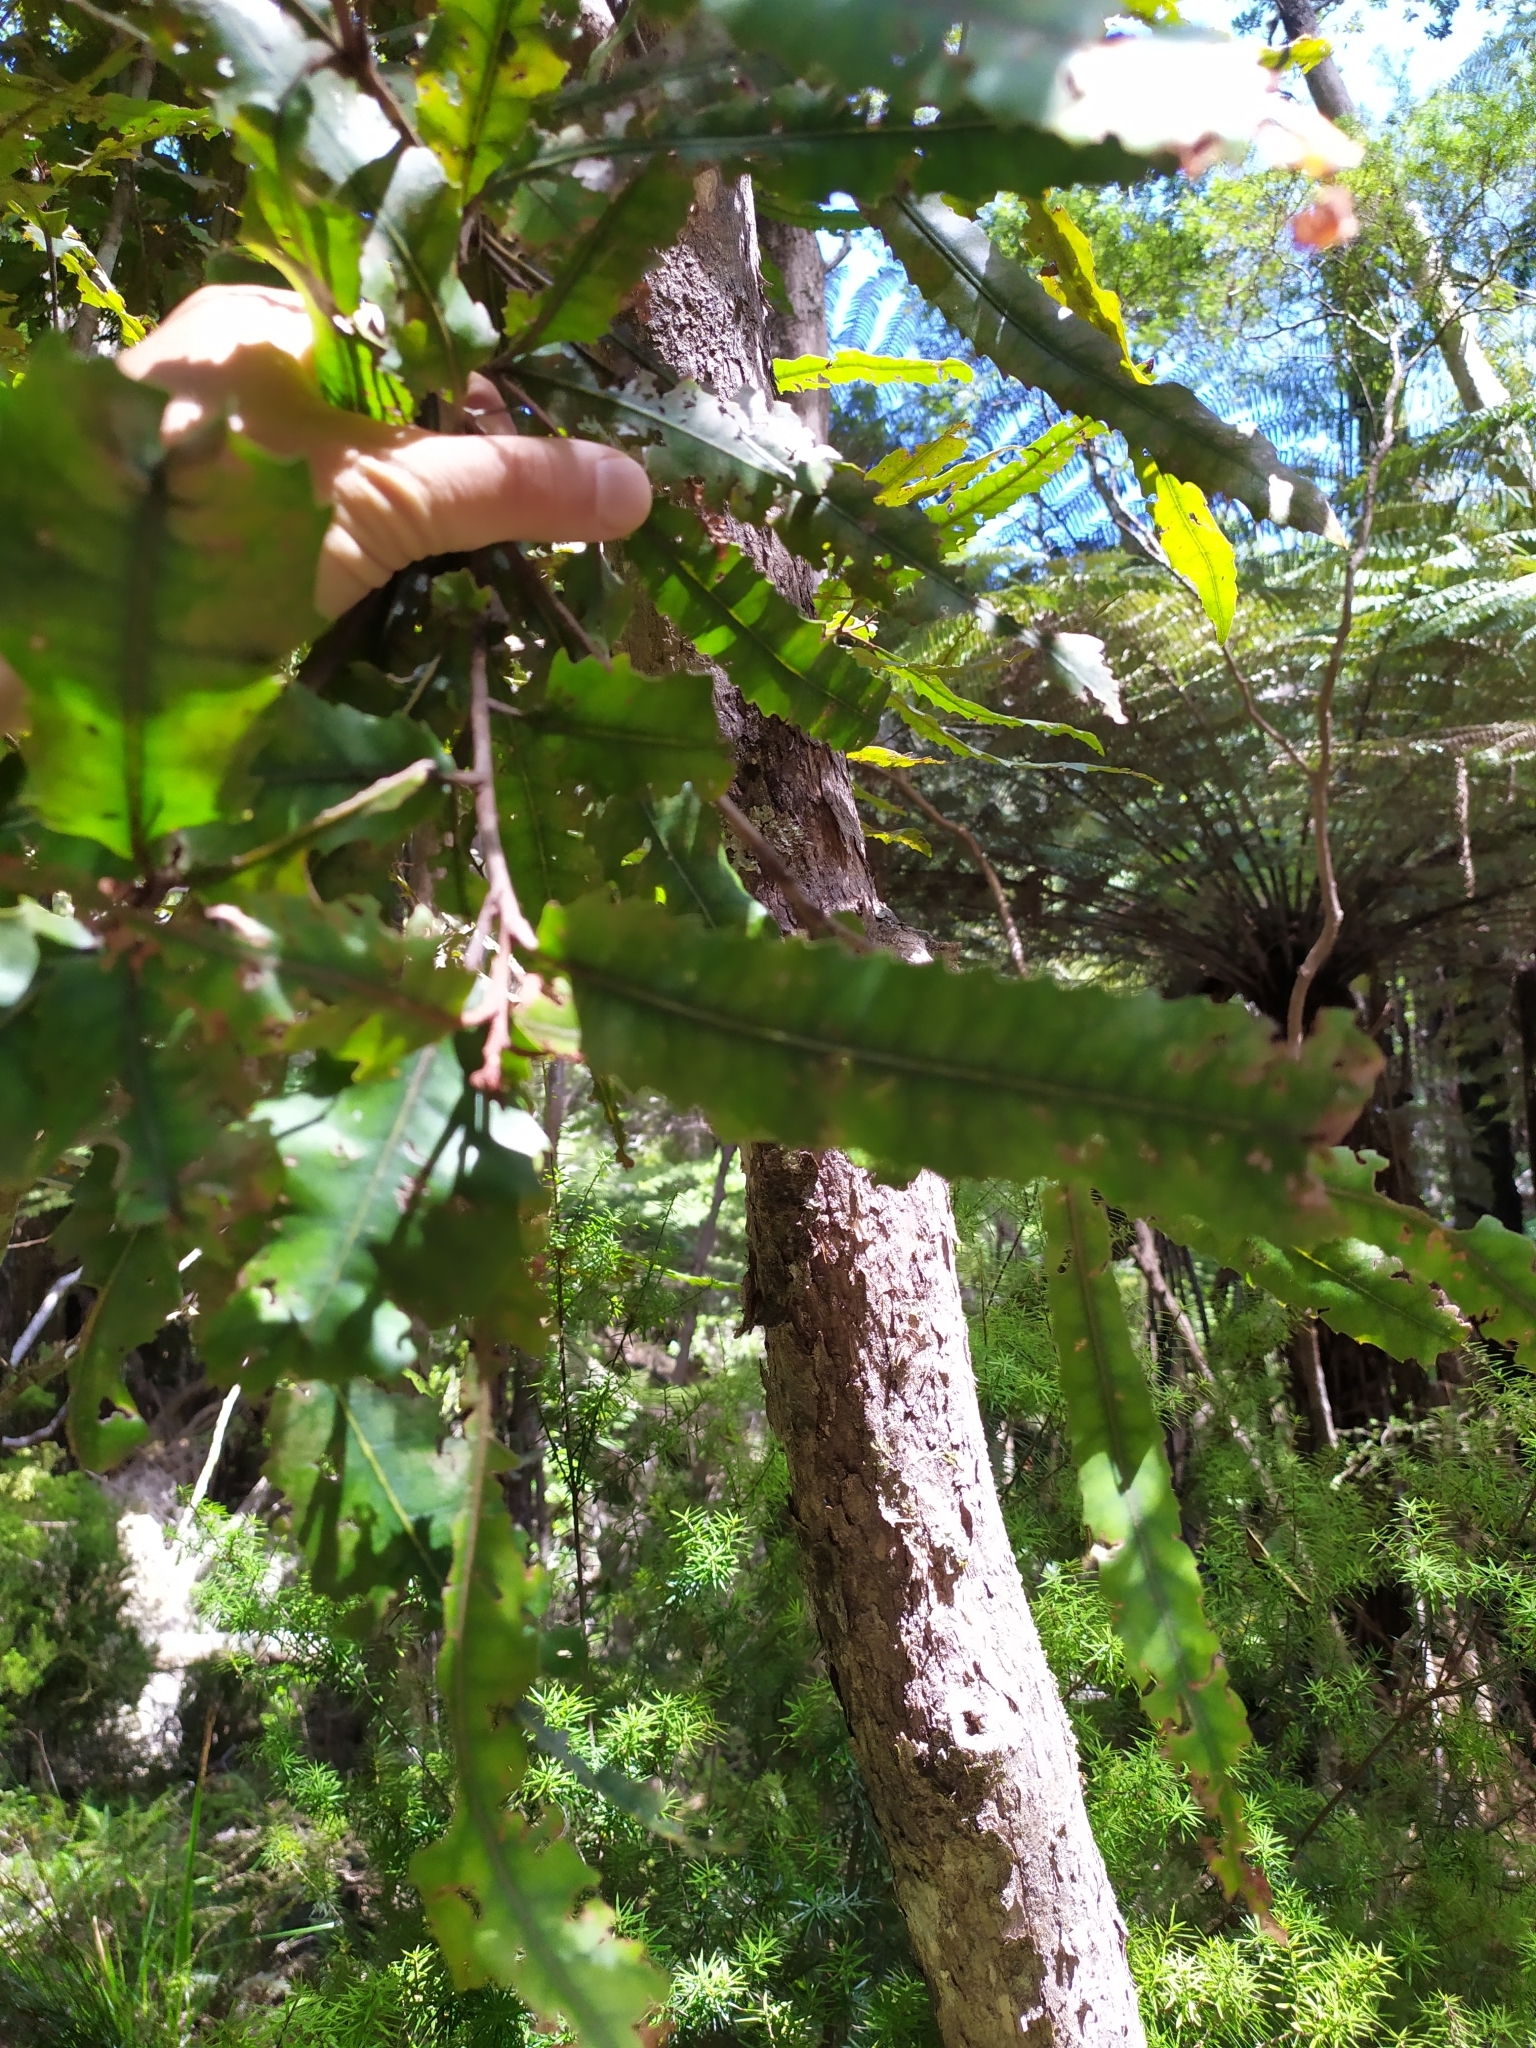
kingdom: Plantae
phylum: Tracheophyta
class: Magnoliopsida
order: Proteales
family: Proteaceae
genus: Knightia
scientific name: Knightia excelsa
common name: New zealand-honeysuckle
